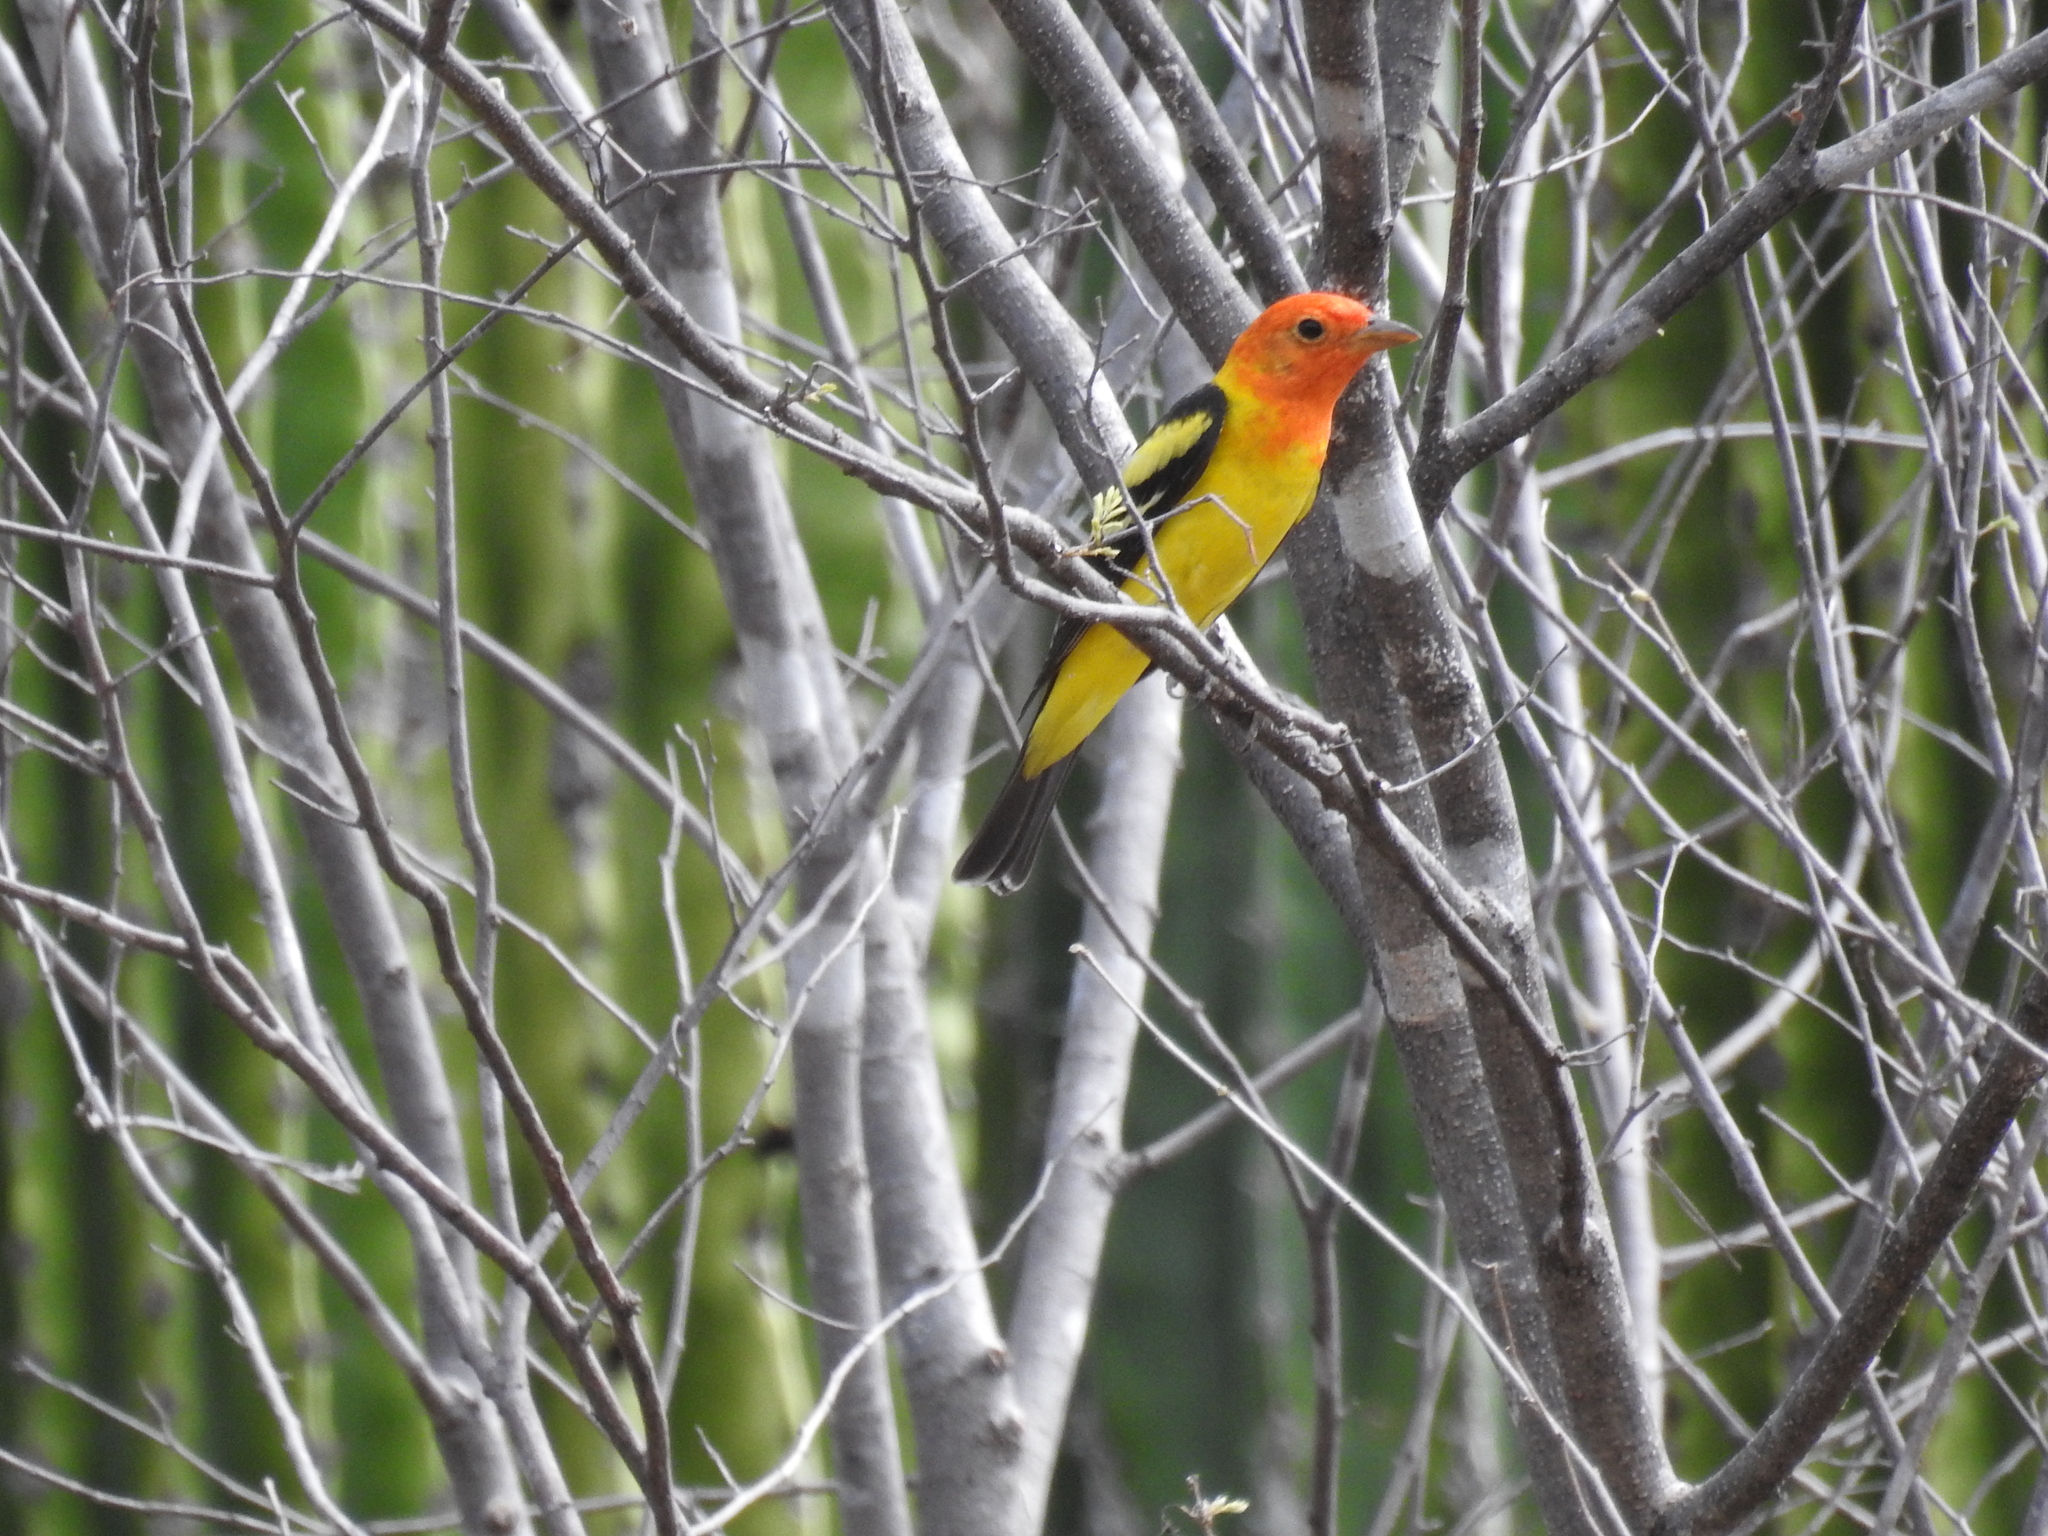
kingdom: Animalia
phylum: Chordata
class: Aves
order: Passeriformes
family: Cardinalidae
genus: Piranga
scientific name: Piranga ludoviciana
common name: Western tanager
